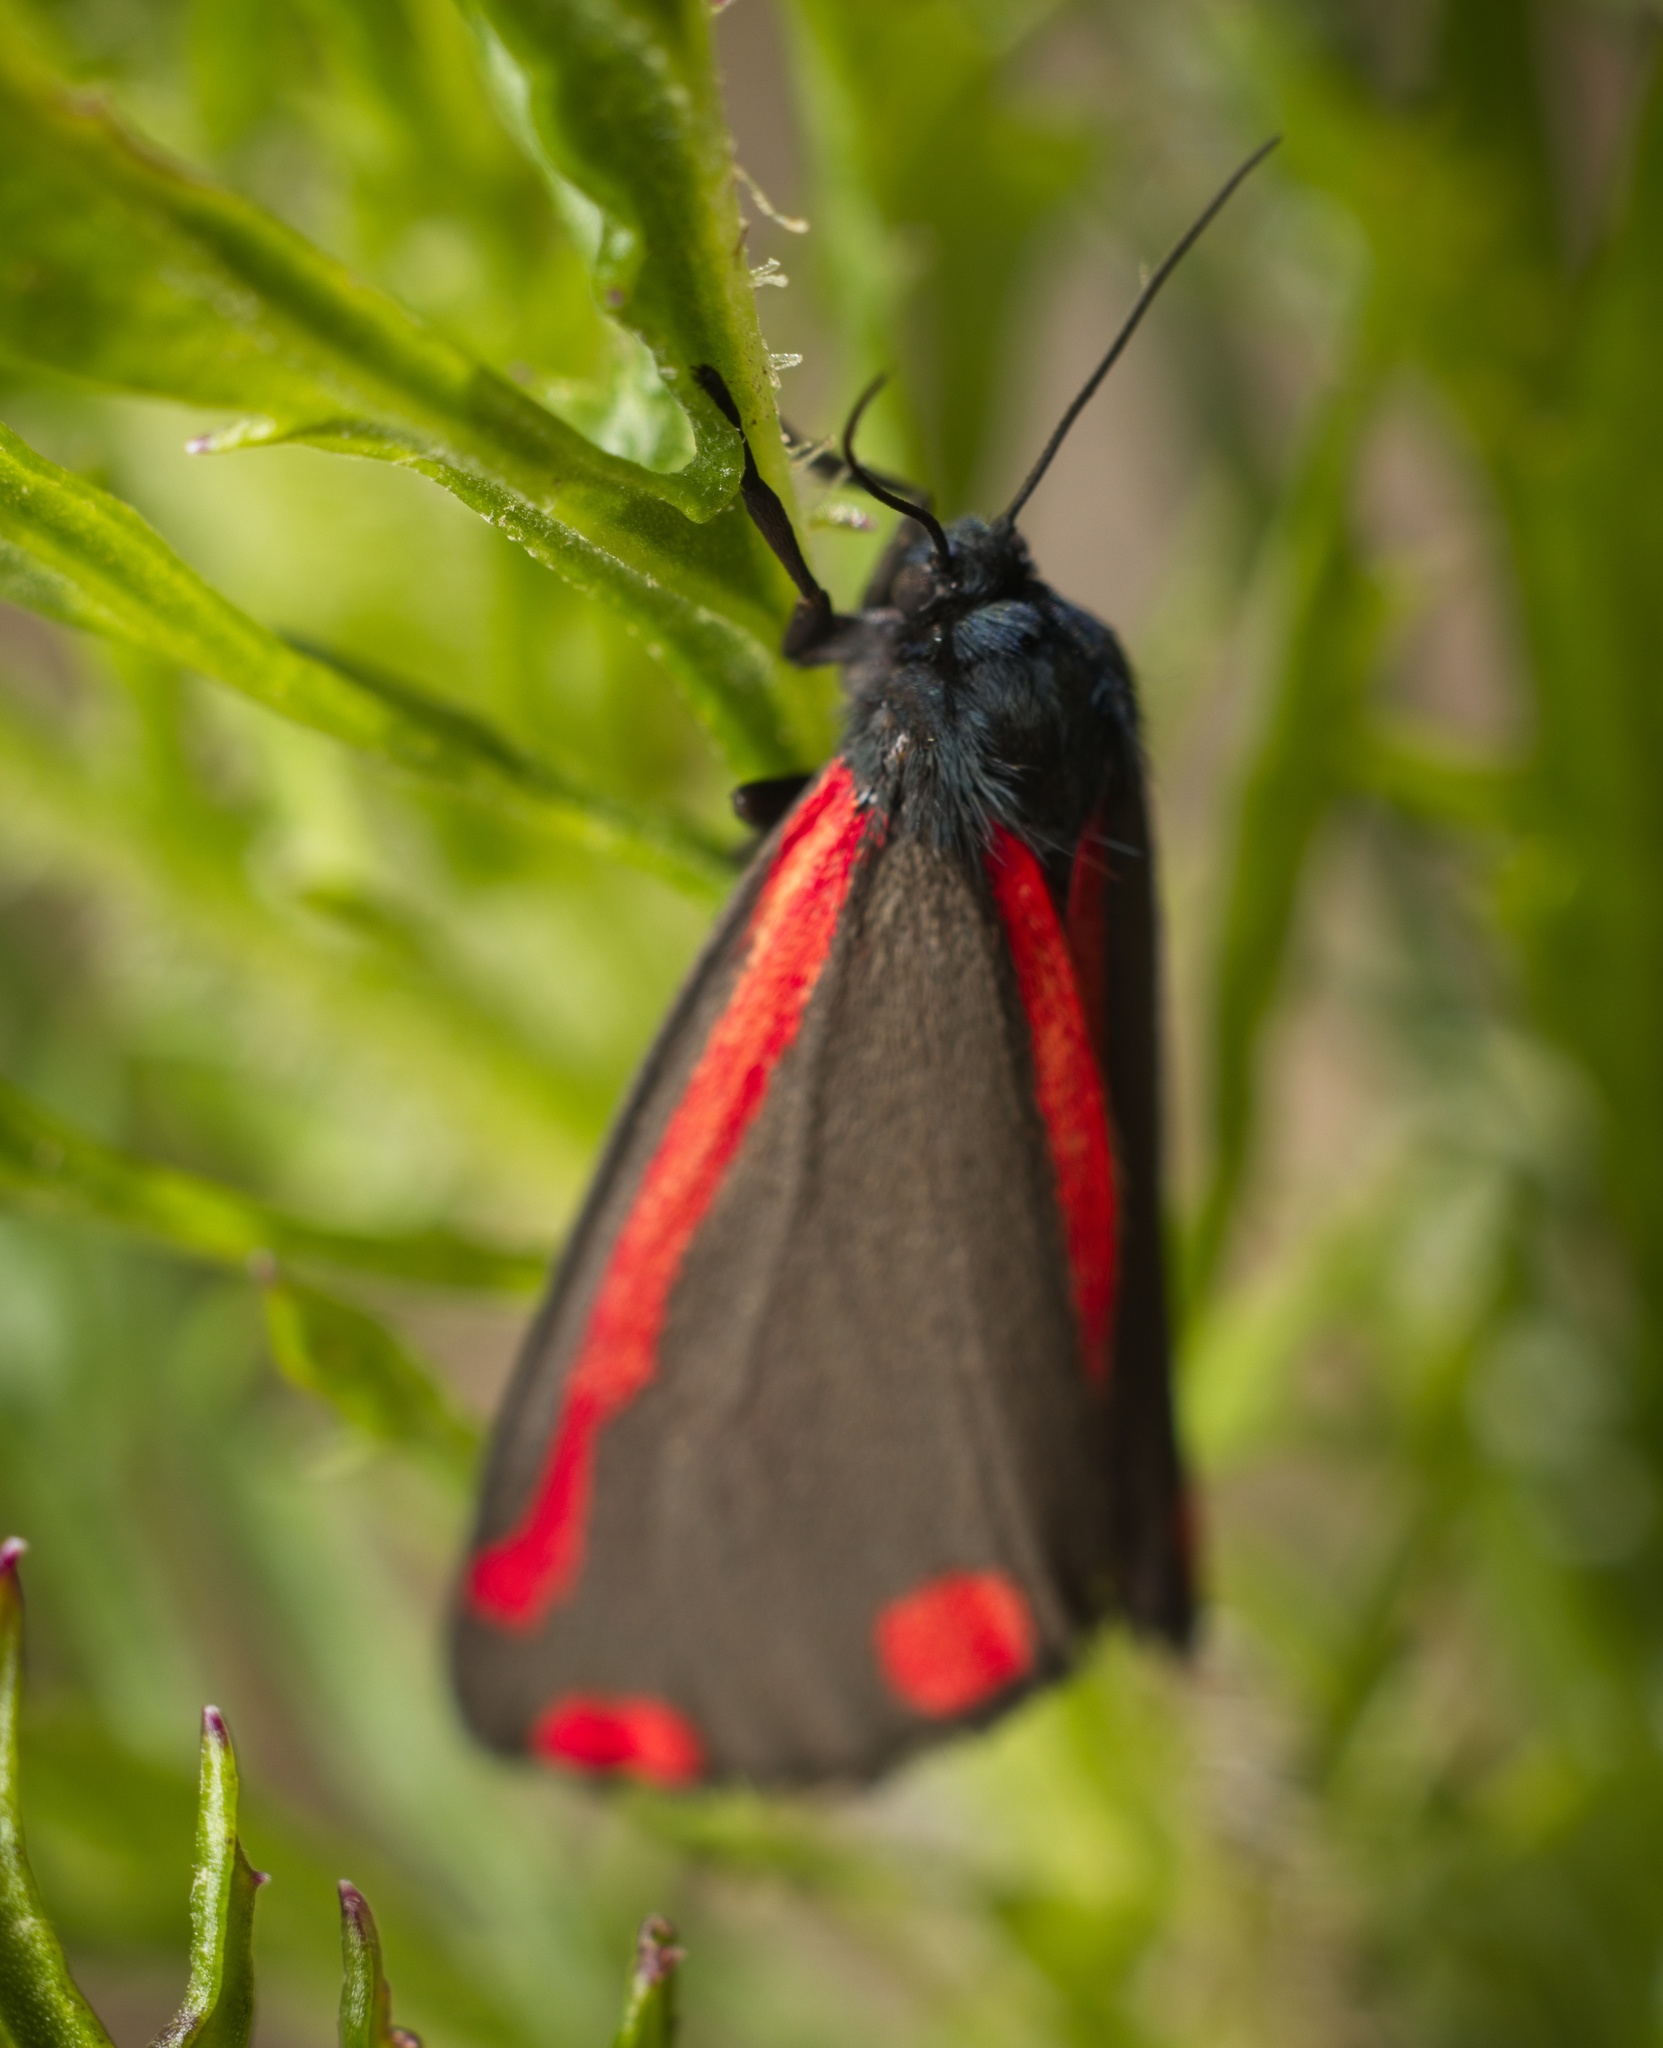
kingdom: Animalia
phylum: Arthropoda
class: Insecta
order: Lepidoptera
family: Erebidae
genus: Tyria
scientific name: Tyria jacobaeae
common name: Cinnabar
